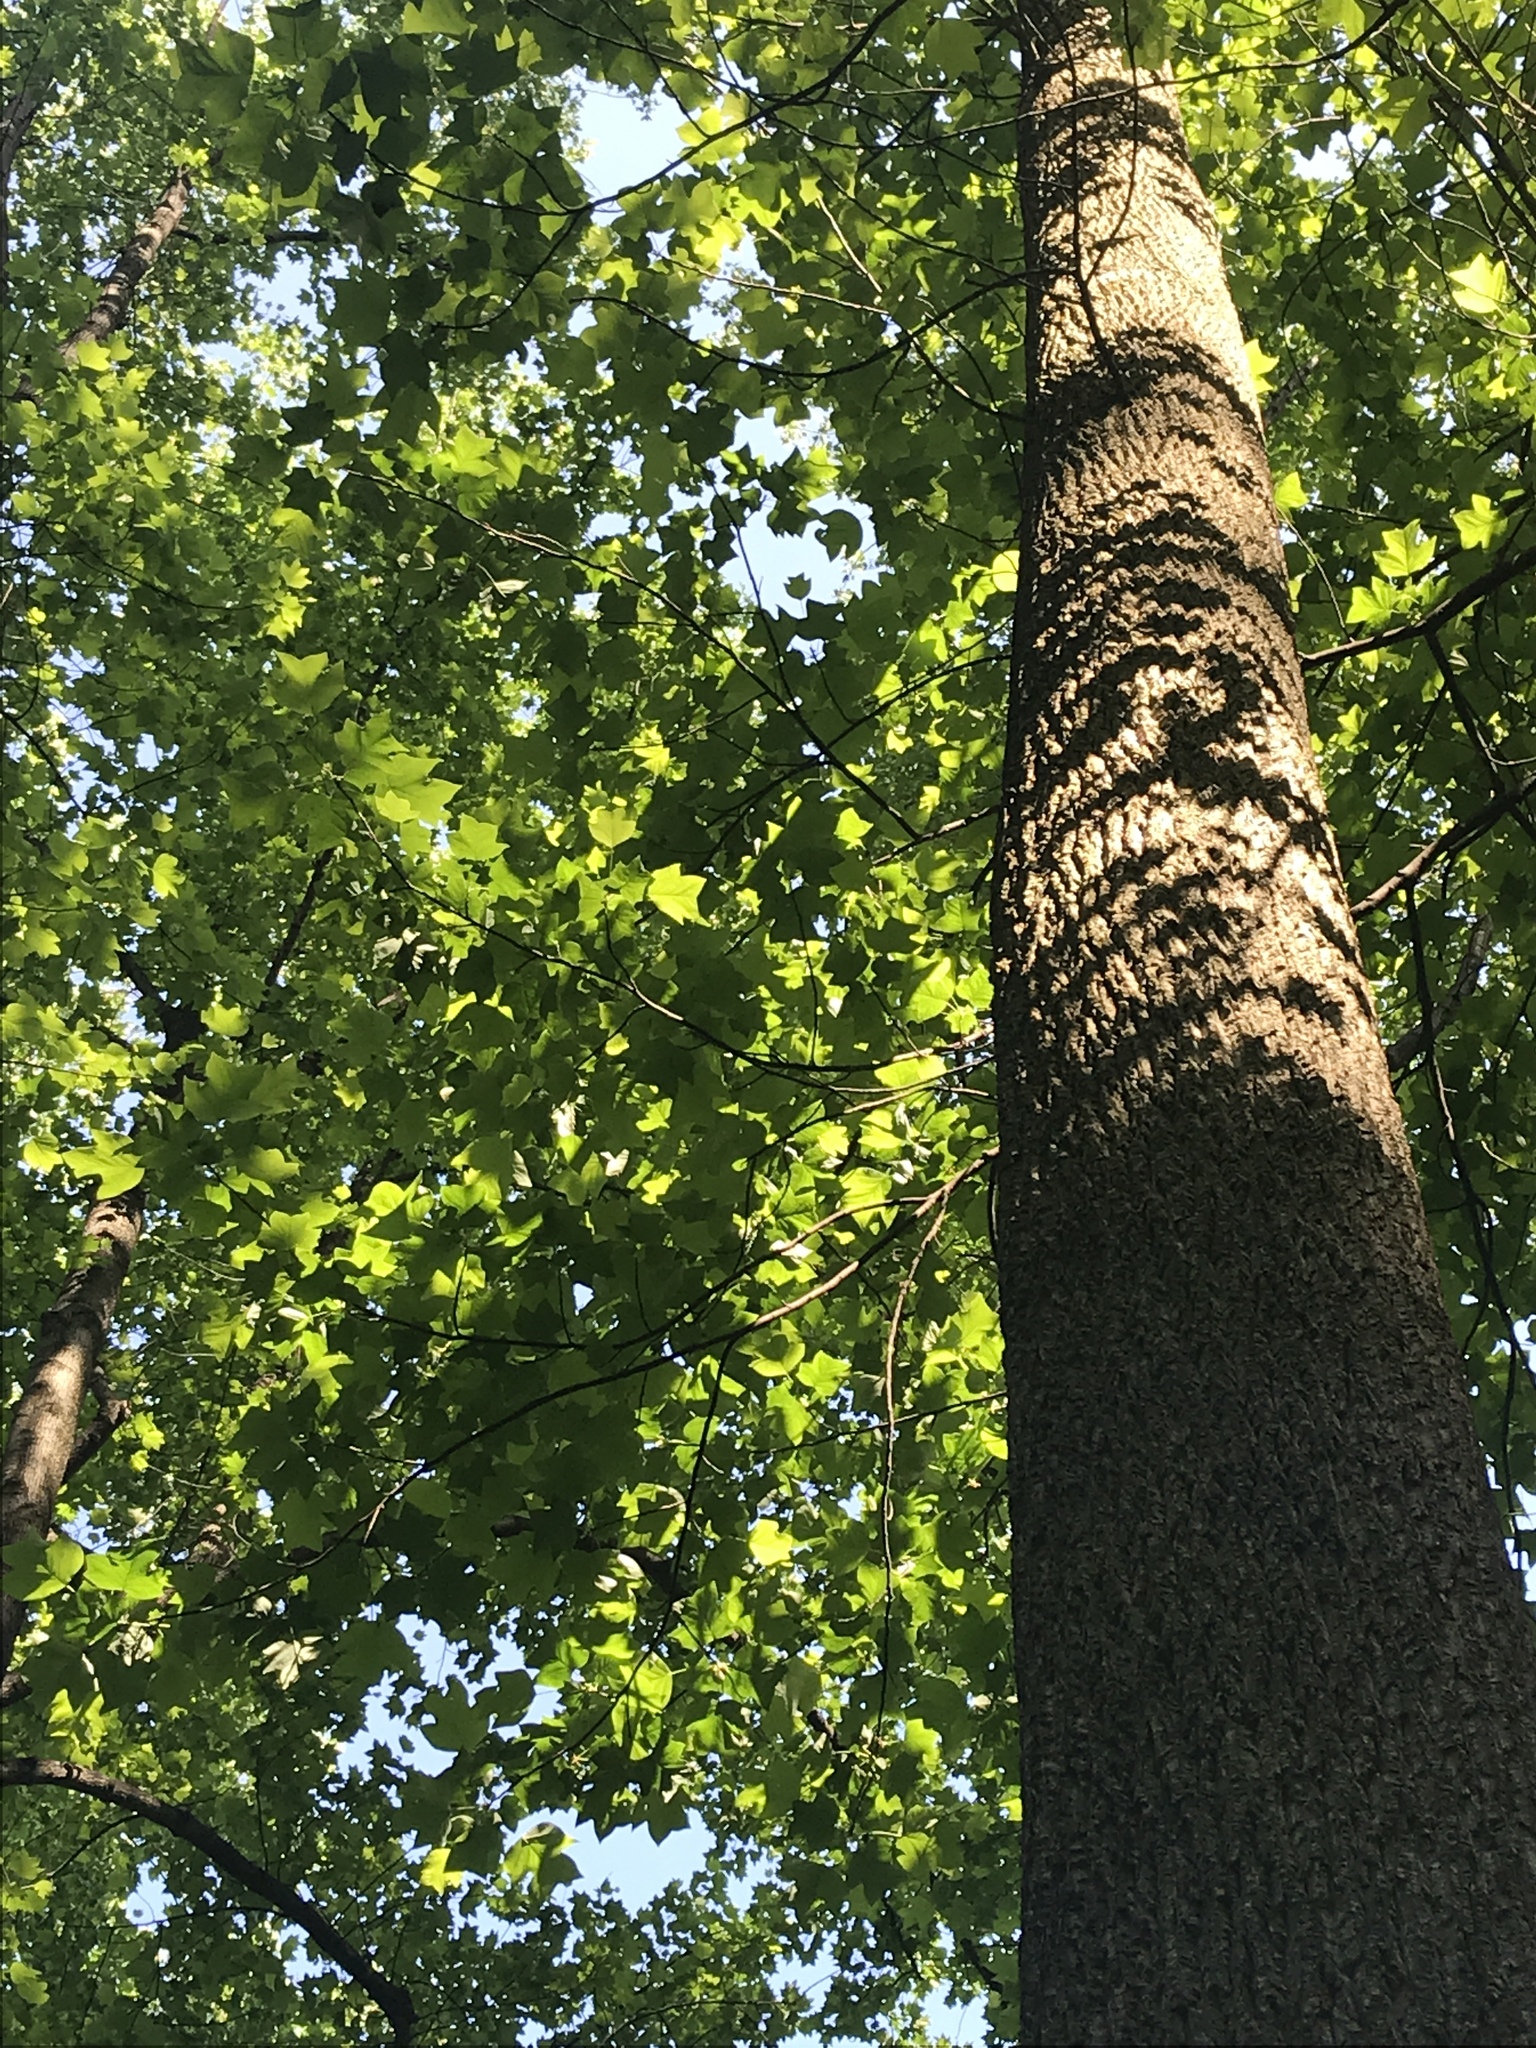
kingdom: Plantae
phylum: Tracheophyta
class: Magnoliopsida
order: Magnoliales
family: Magnoliaceae
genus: Liriodendron
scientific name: Liriodendron tulipifera
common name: Tulip tree
